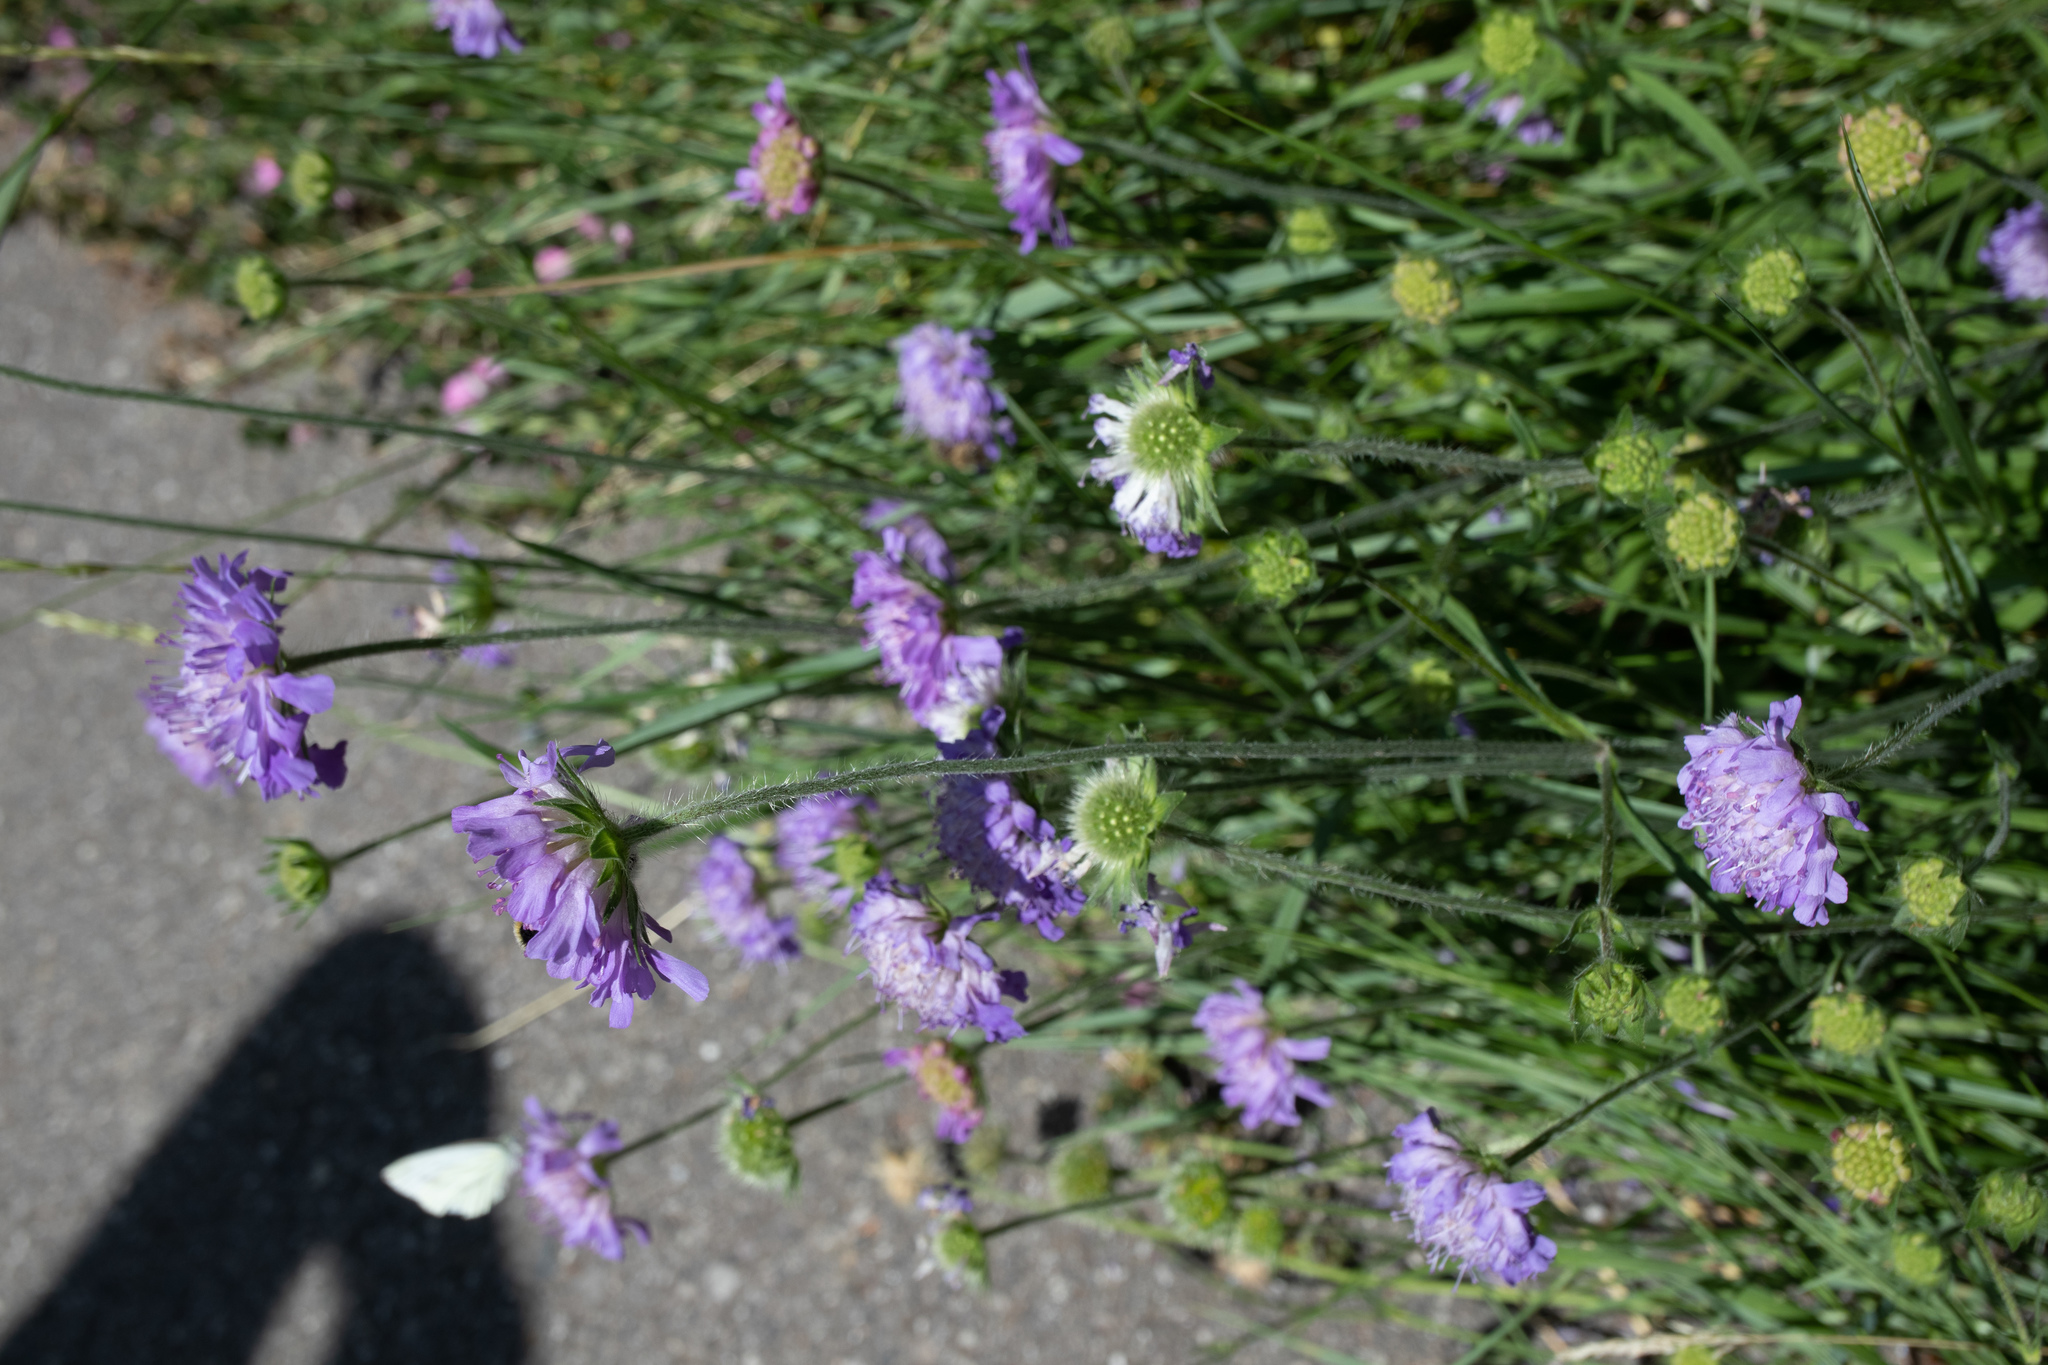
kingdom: Plantae
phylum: Tracheophyta
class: Magnoliopsida
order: Dipsacales
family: Caprifoliaceae
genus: Knautia
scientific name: Knautia arvensis
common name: Field scabiosa
